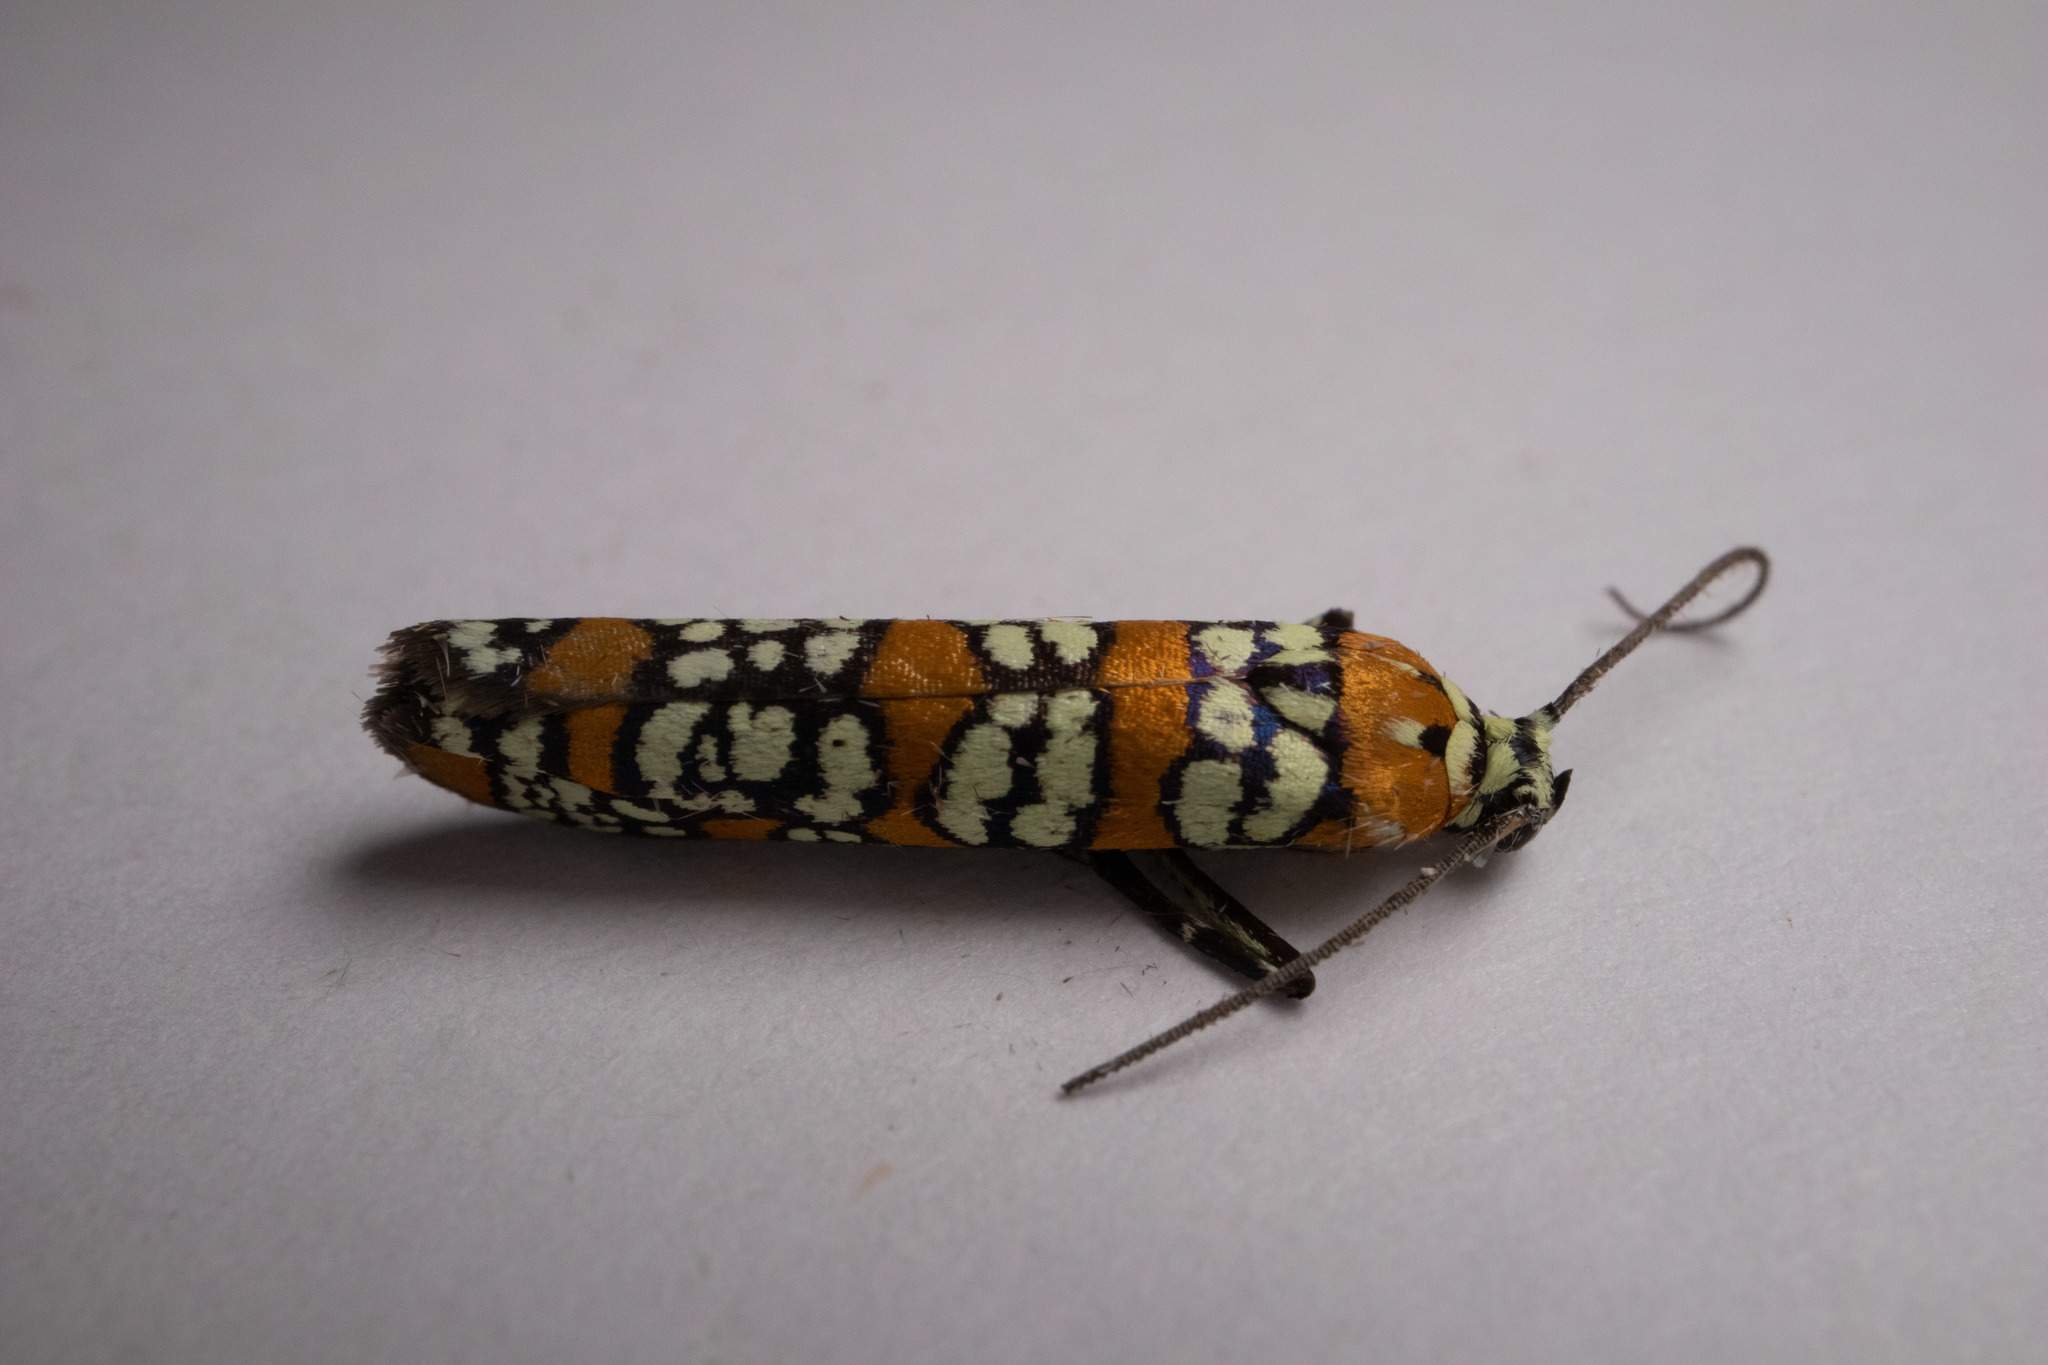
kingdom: Animalia
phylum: Arthropoda
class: Insecta
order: Lepidoptera
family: Attevidae
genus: Atteva
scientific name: Atteva punctella
